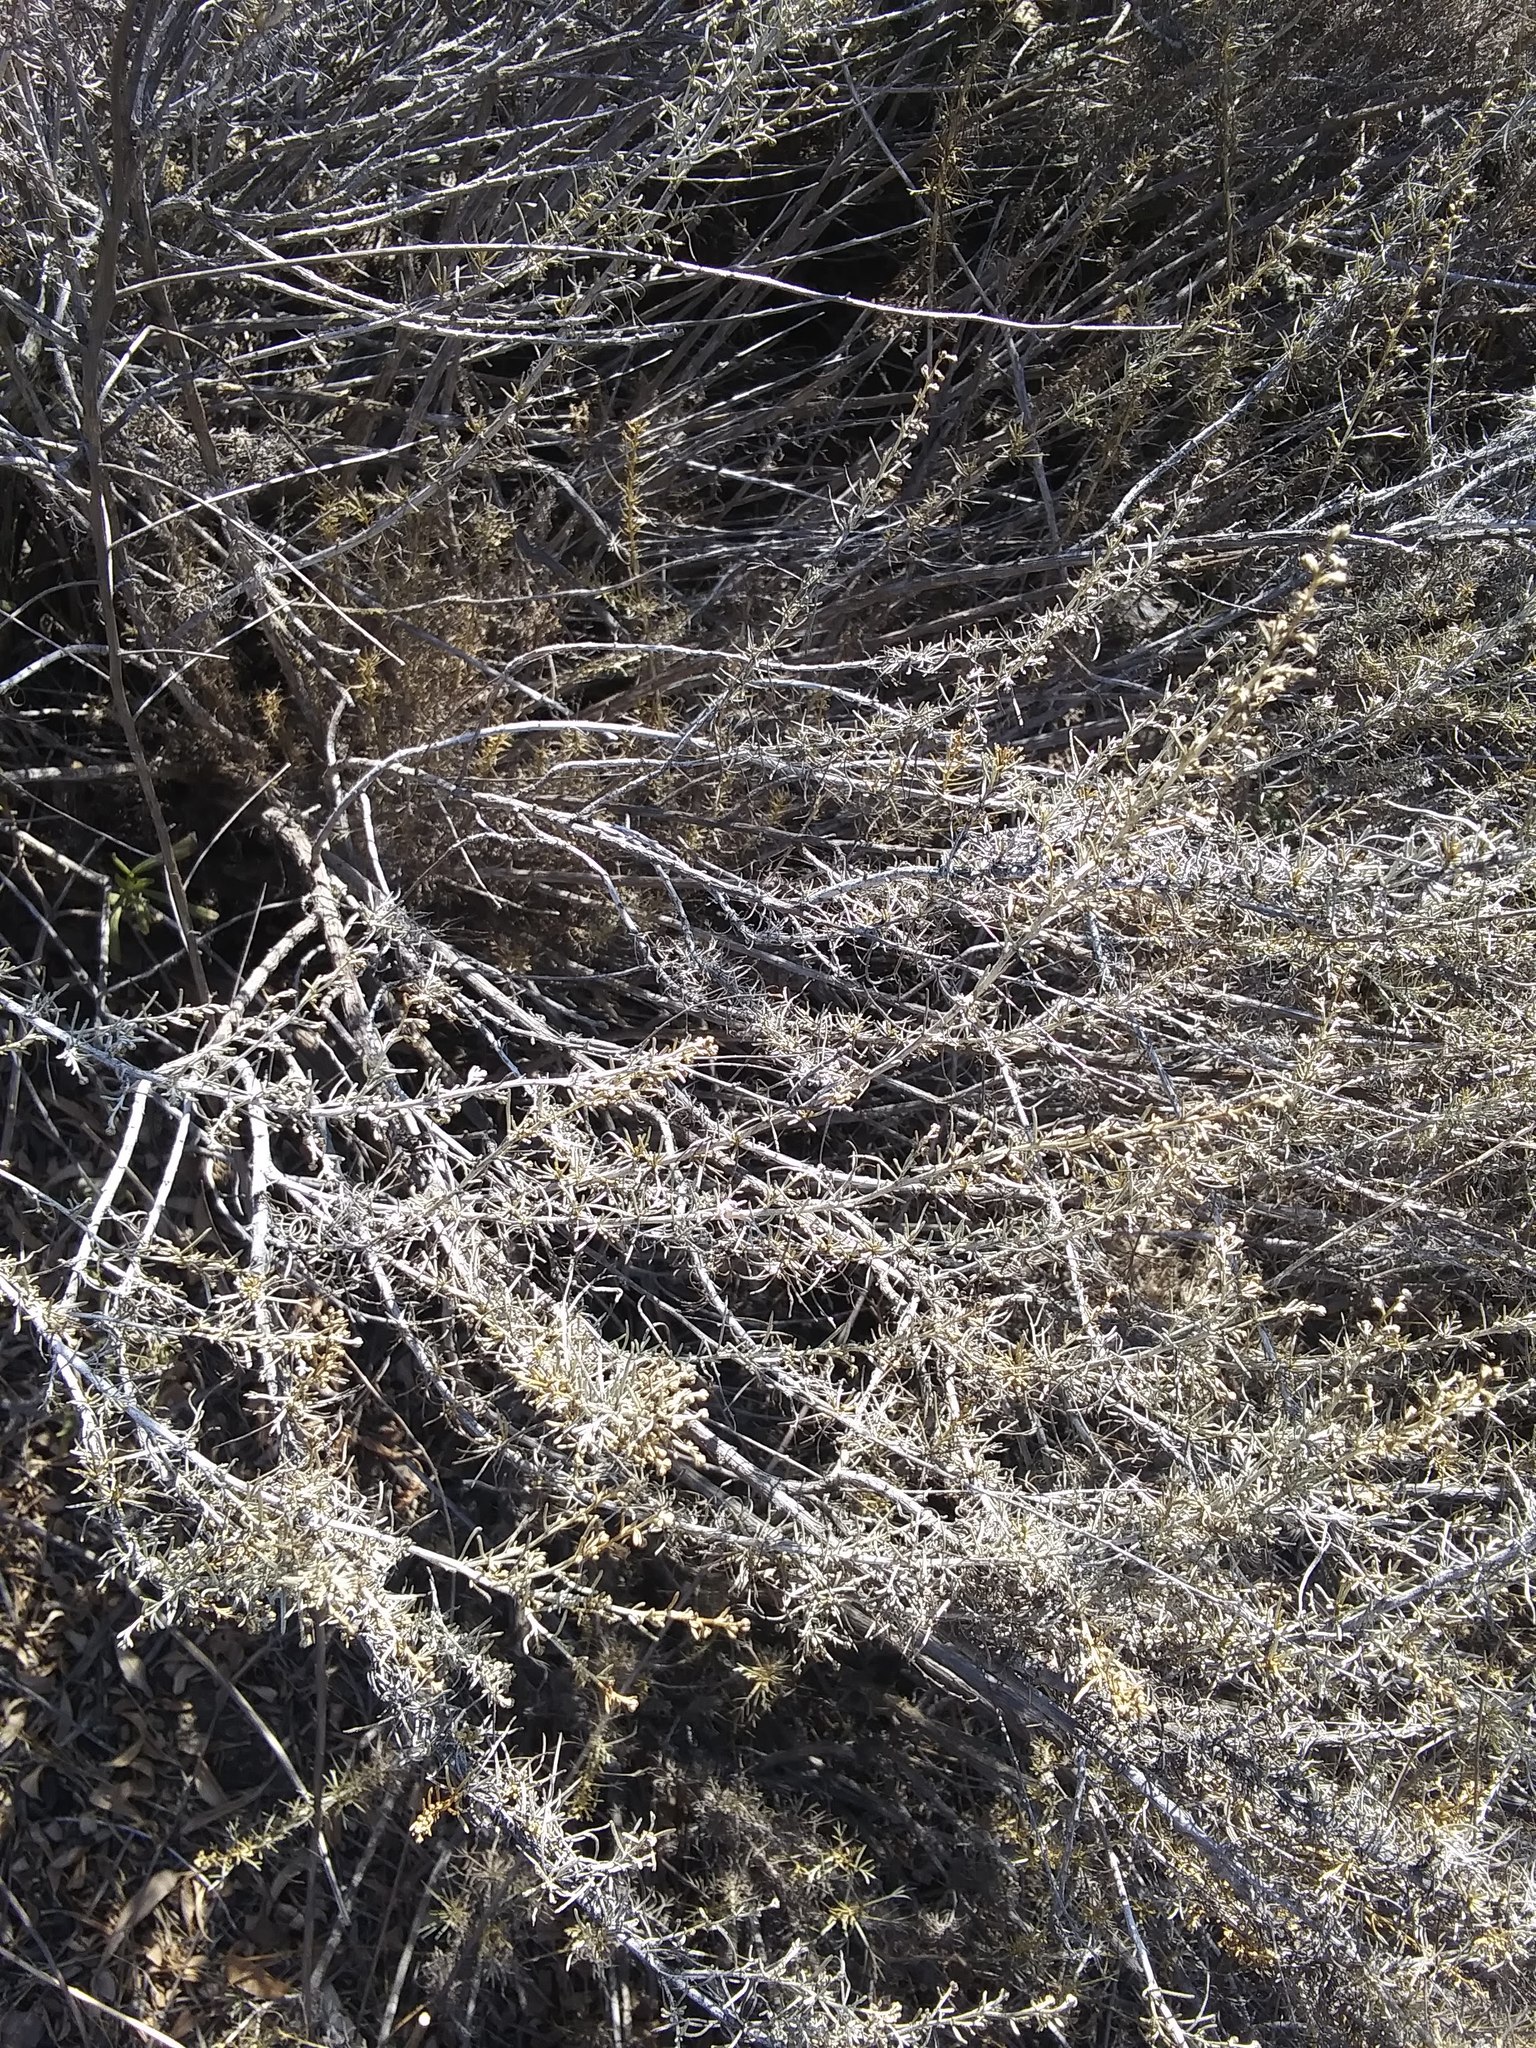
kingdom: Plantae
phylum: Tracheophyta
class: Magnoliopsida
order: Asterales
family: Asteraceae
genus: Artemisia
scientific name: Artemisia californica
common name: California sagebrush
